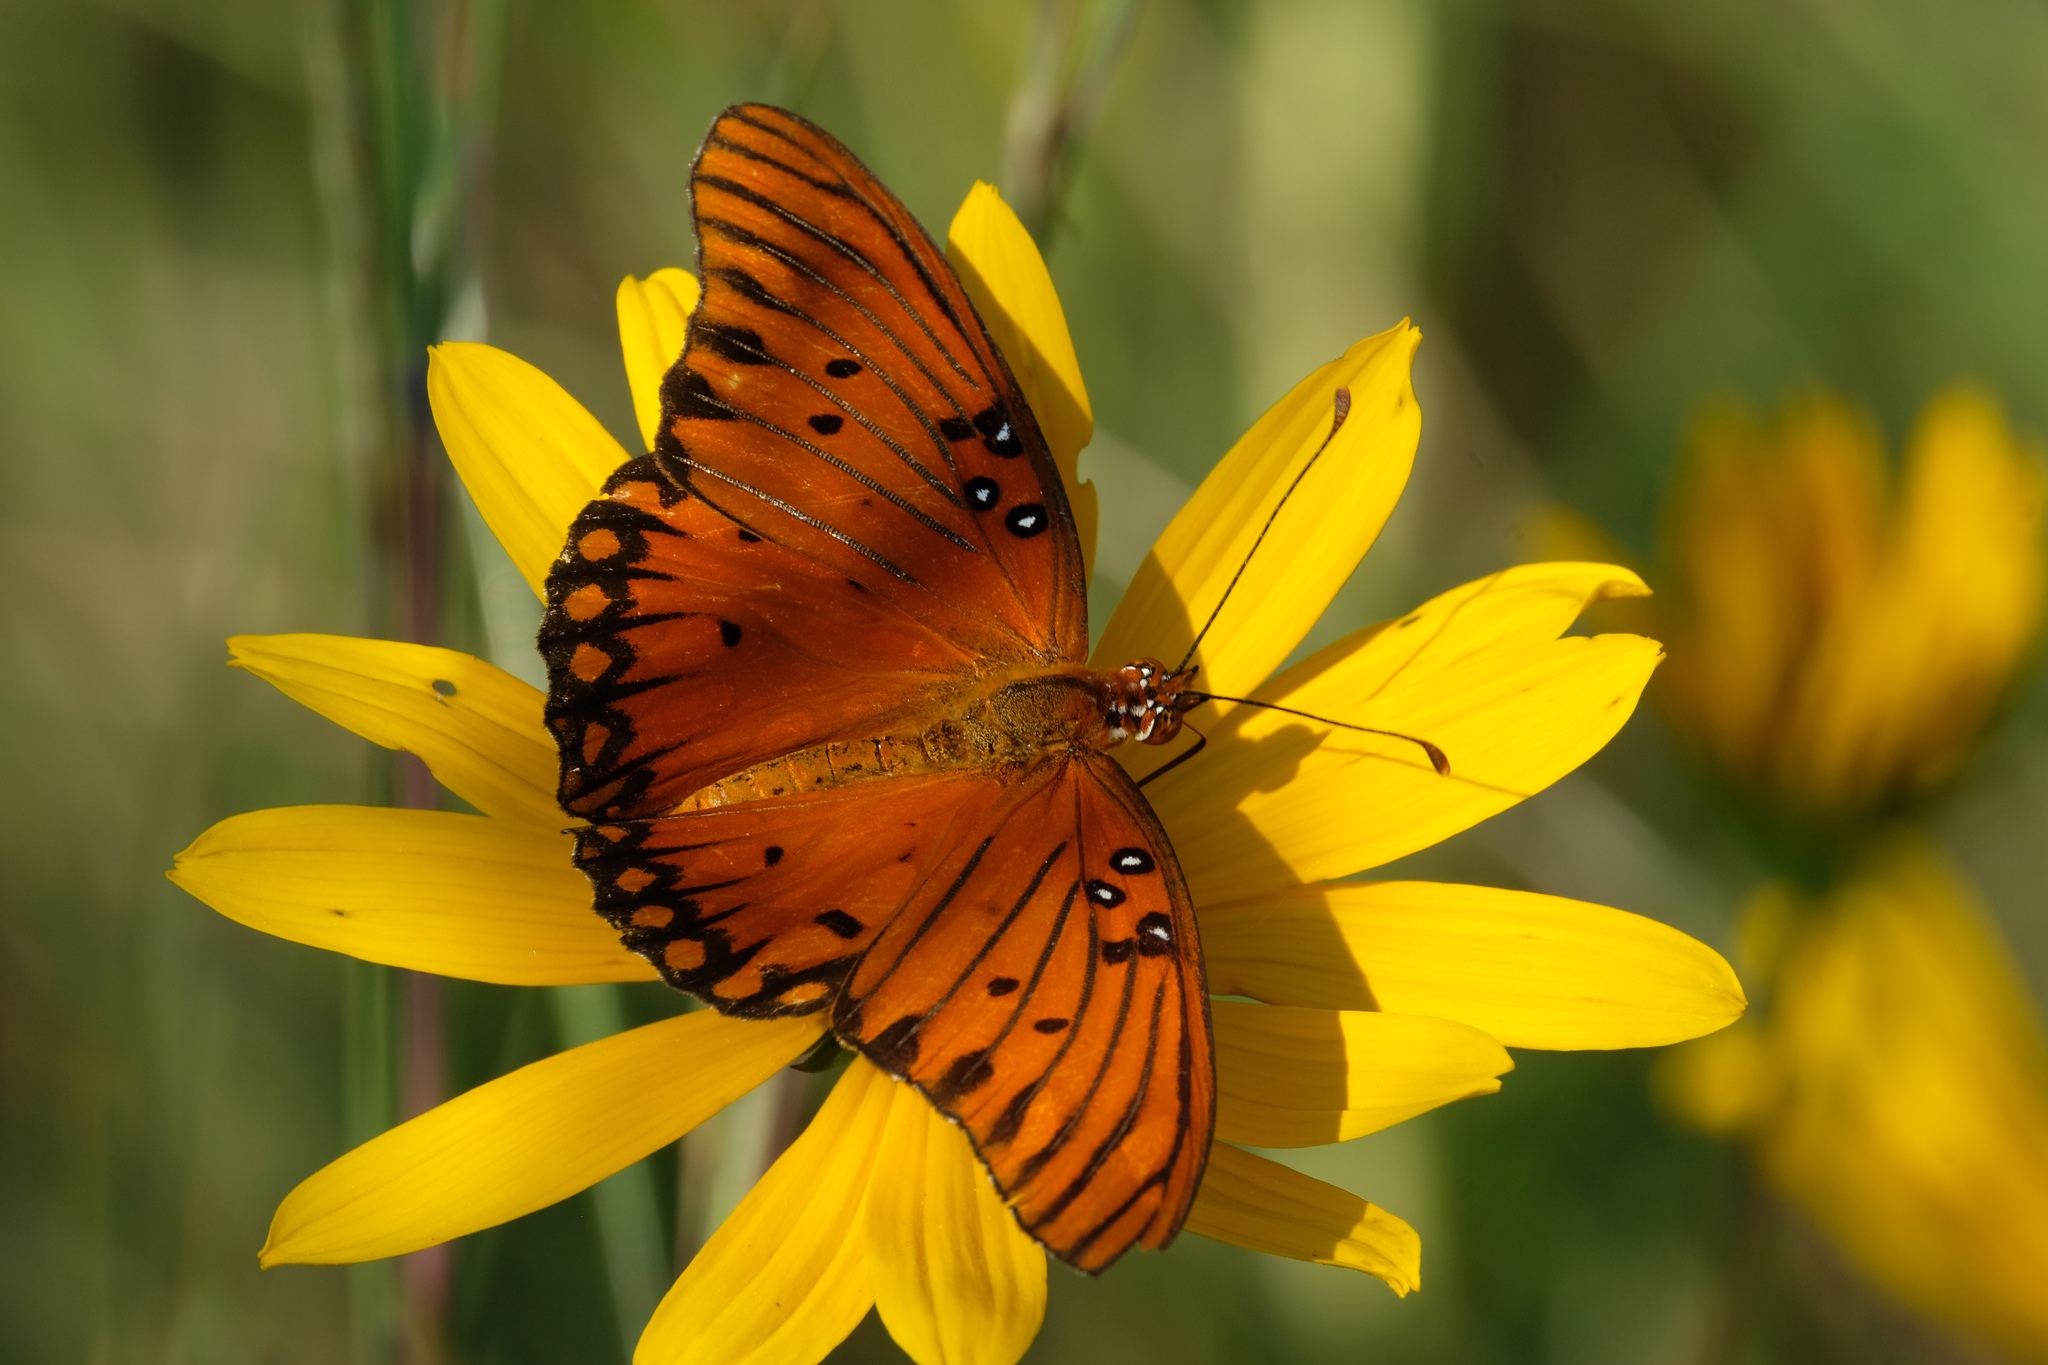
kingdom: Animalia
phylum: Arthropoda
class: Insecta
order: Lepidoptera
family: Nymphalidae
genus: Dione
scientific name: Dione vanillae
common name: Gulf fritillary
